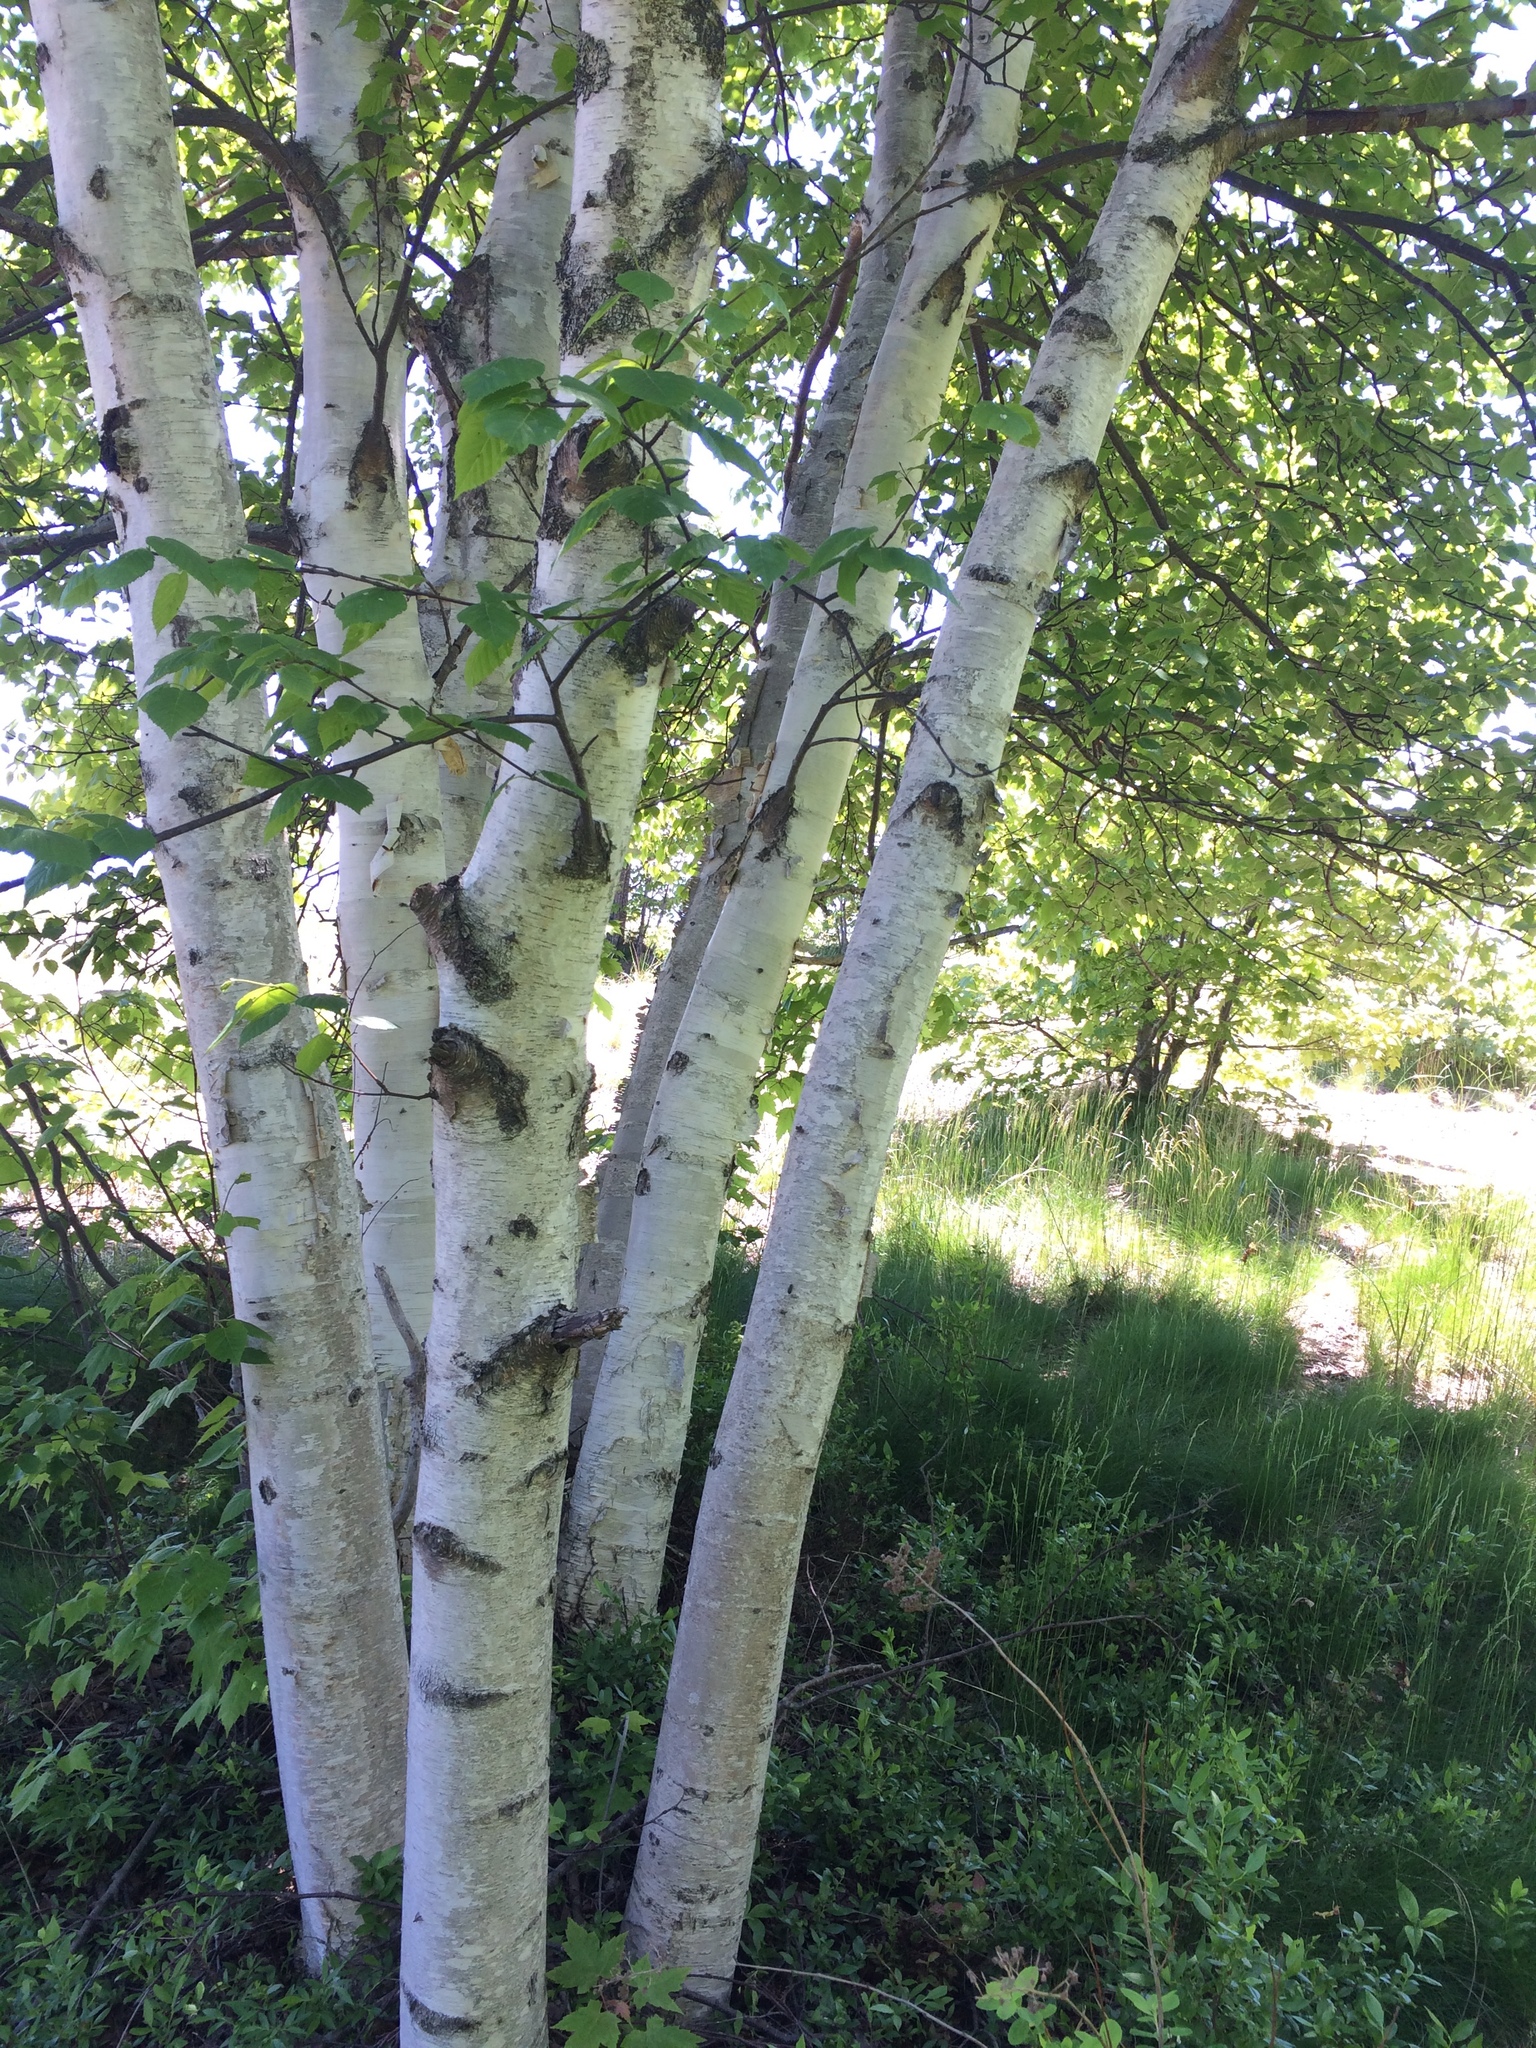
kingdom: Plantae
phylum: Tracheophyta
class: Magnoliopsida
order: Fagales
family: Betulaceae
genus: Betula
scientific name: Betula papyrifera
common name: Paper birch
